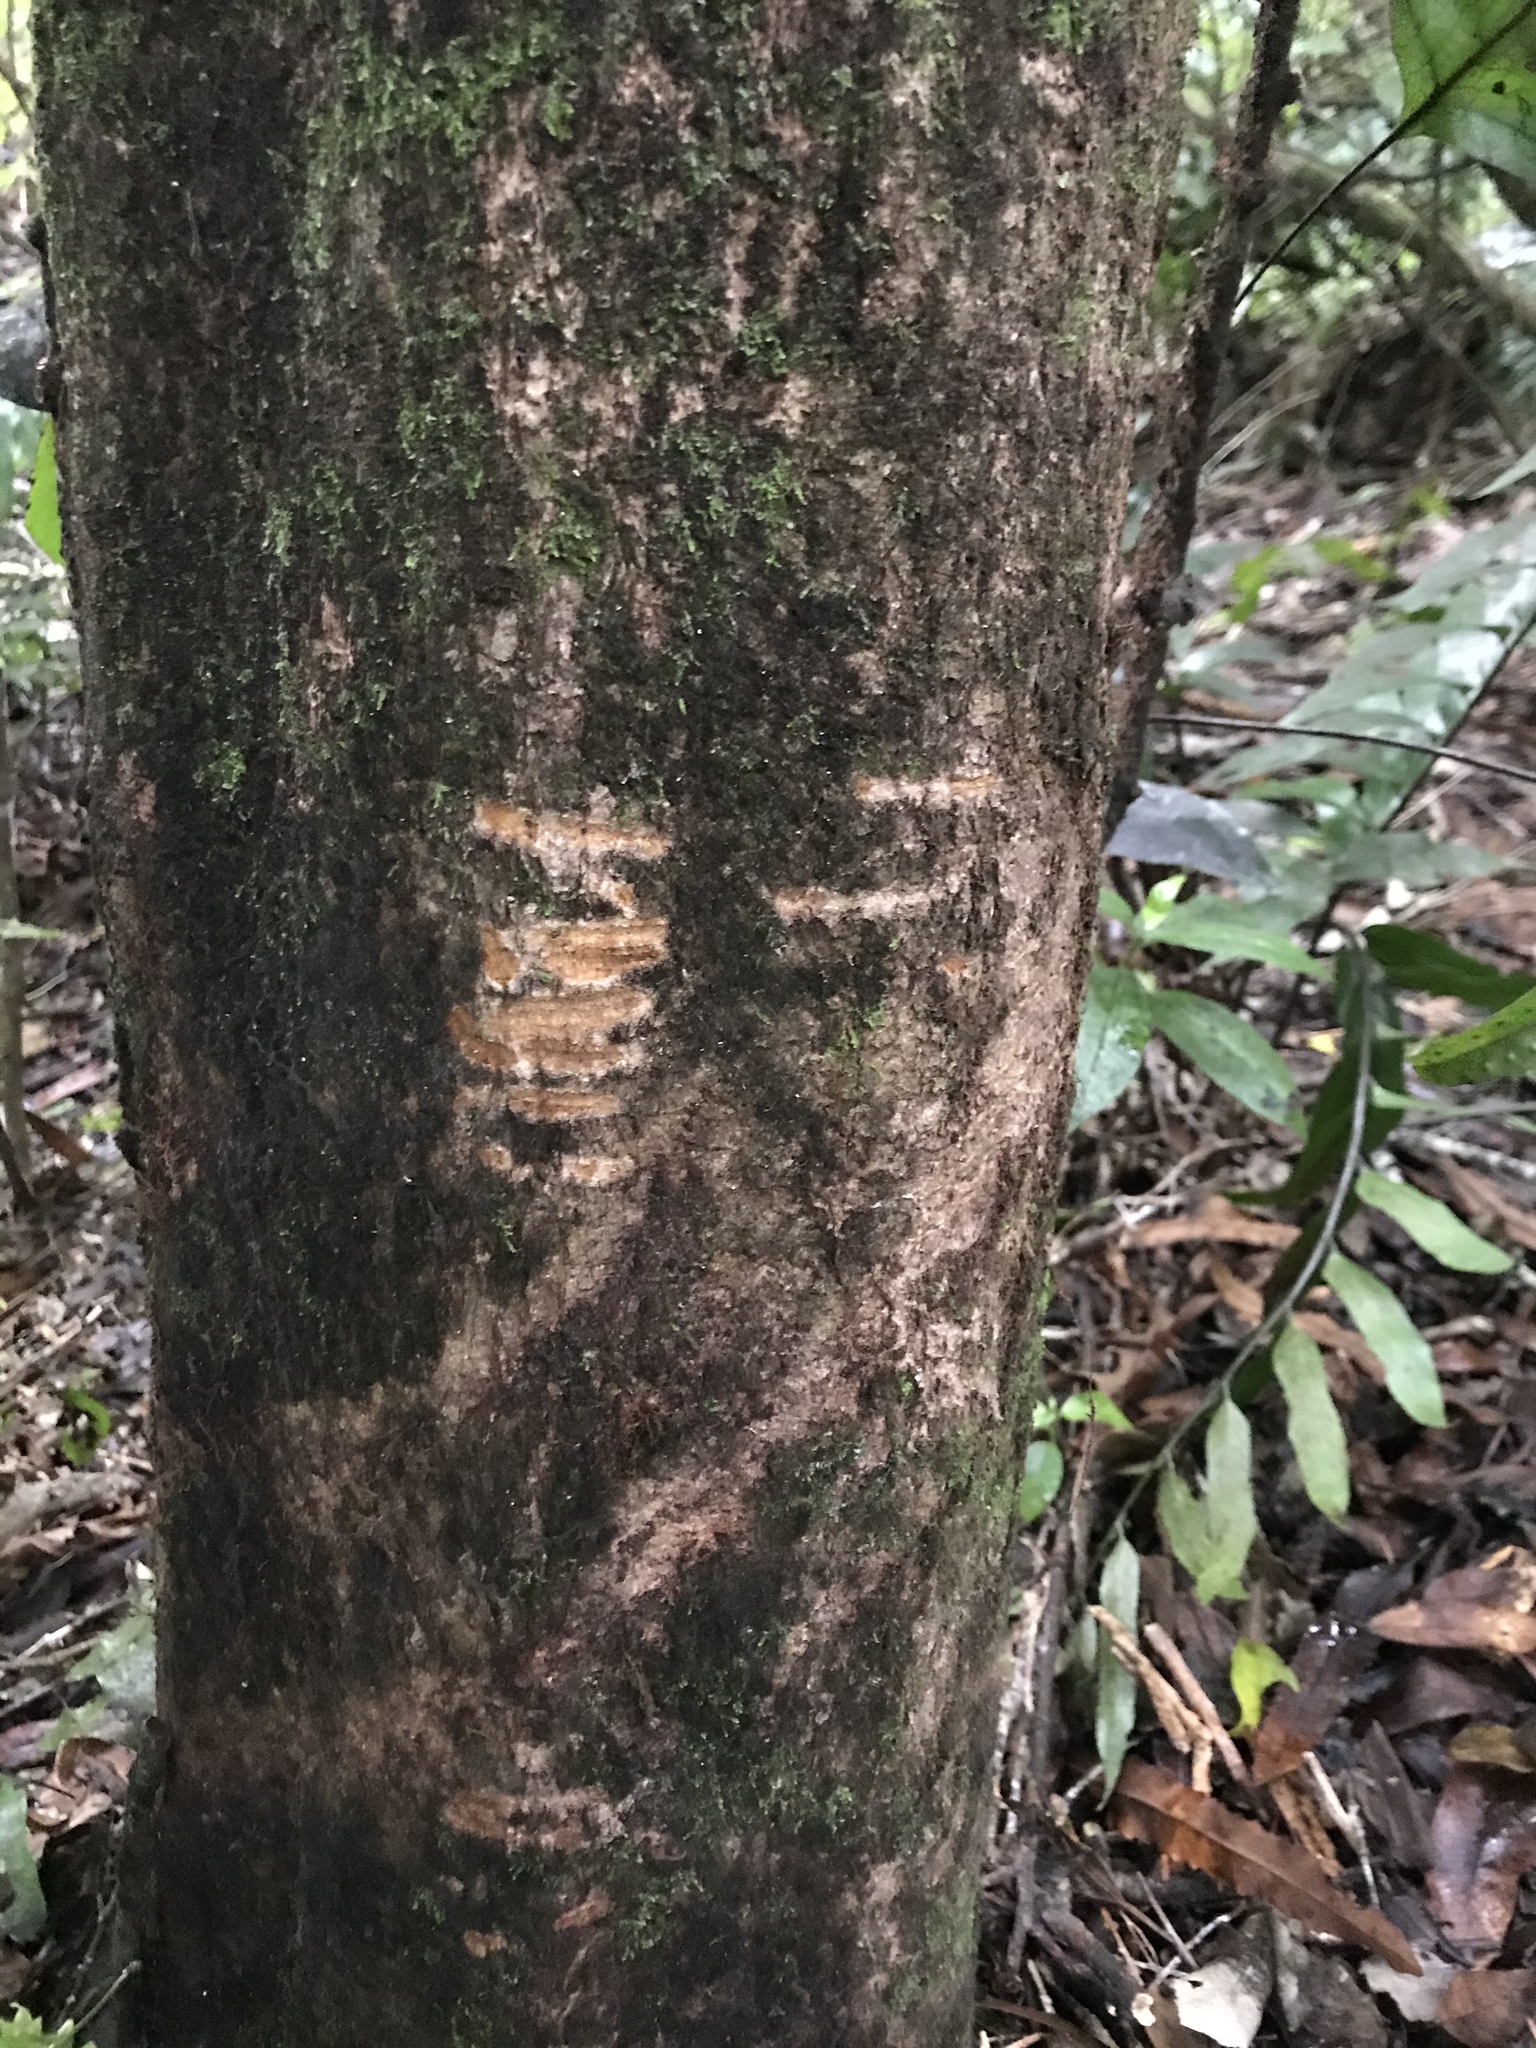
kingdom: Animalia
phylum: Chordata
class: Mammalia
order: Diprotodontia
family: Phalangeridae
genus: Trichosurus
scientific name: Trichosurus vulpecula
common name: Common brushtail
